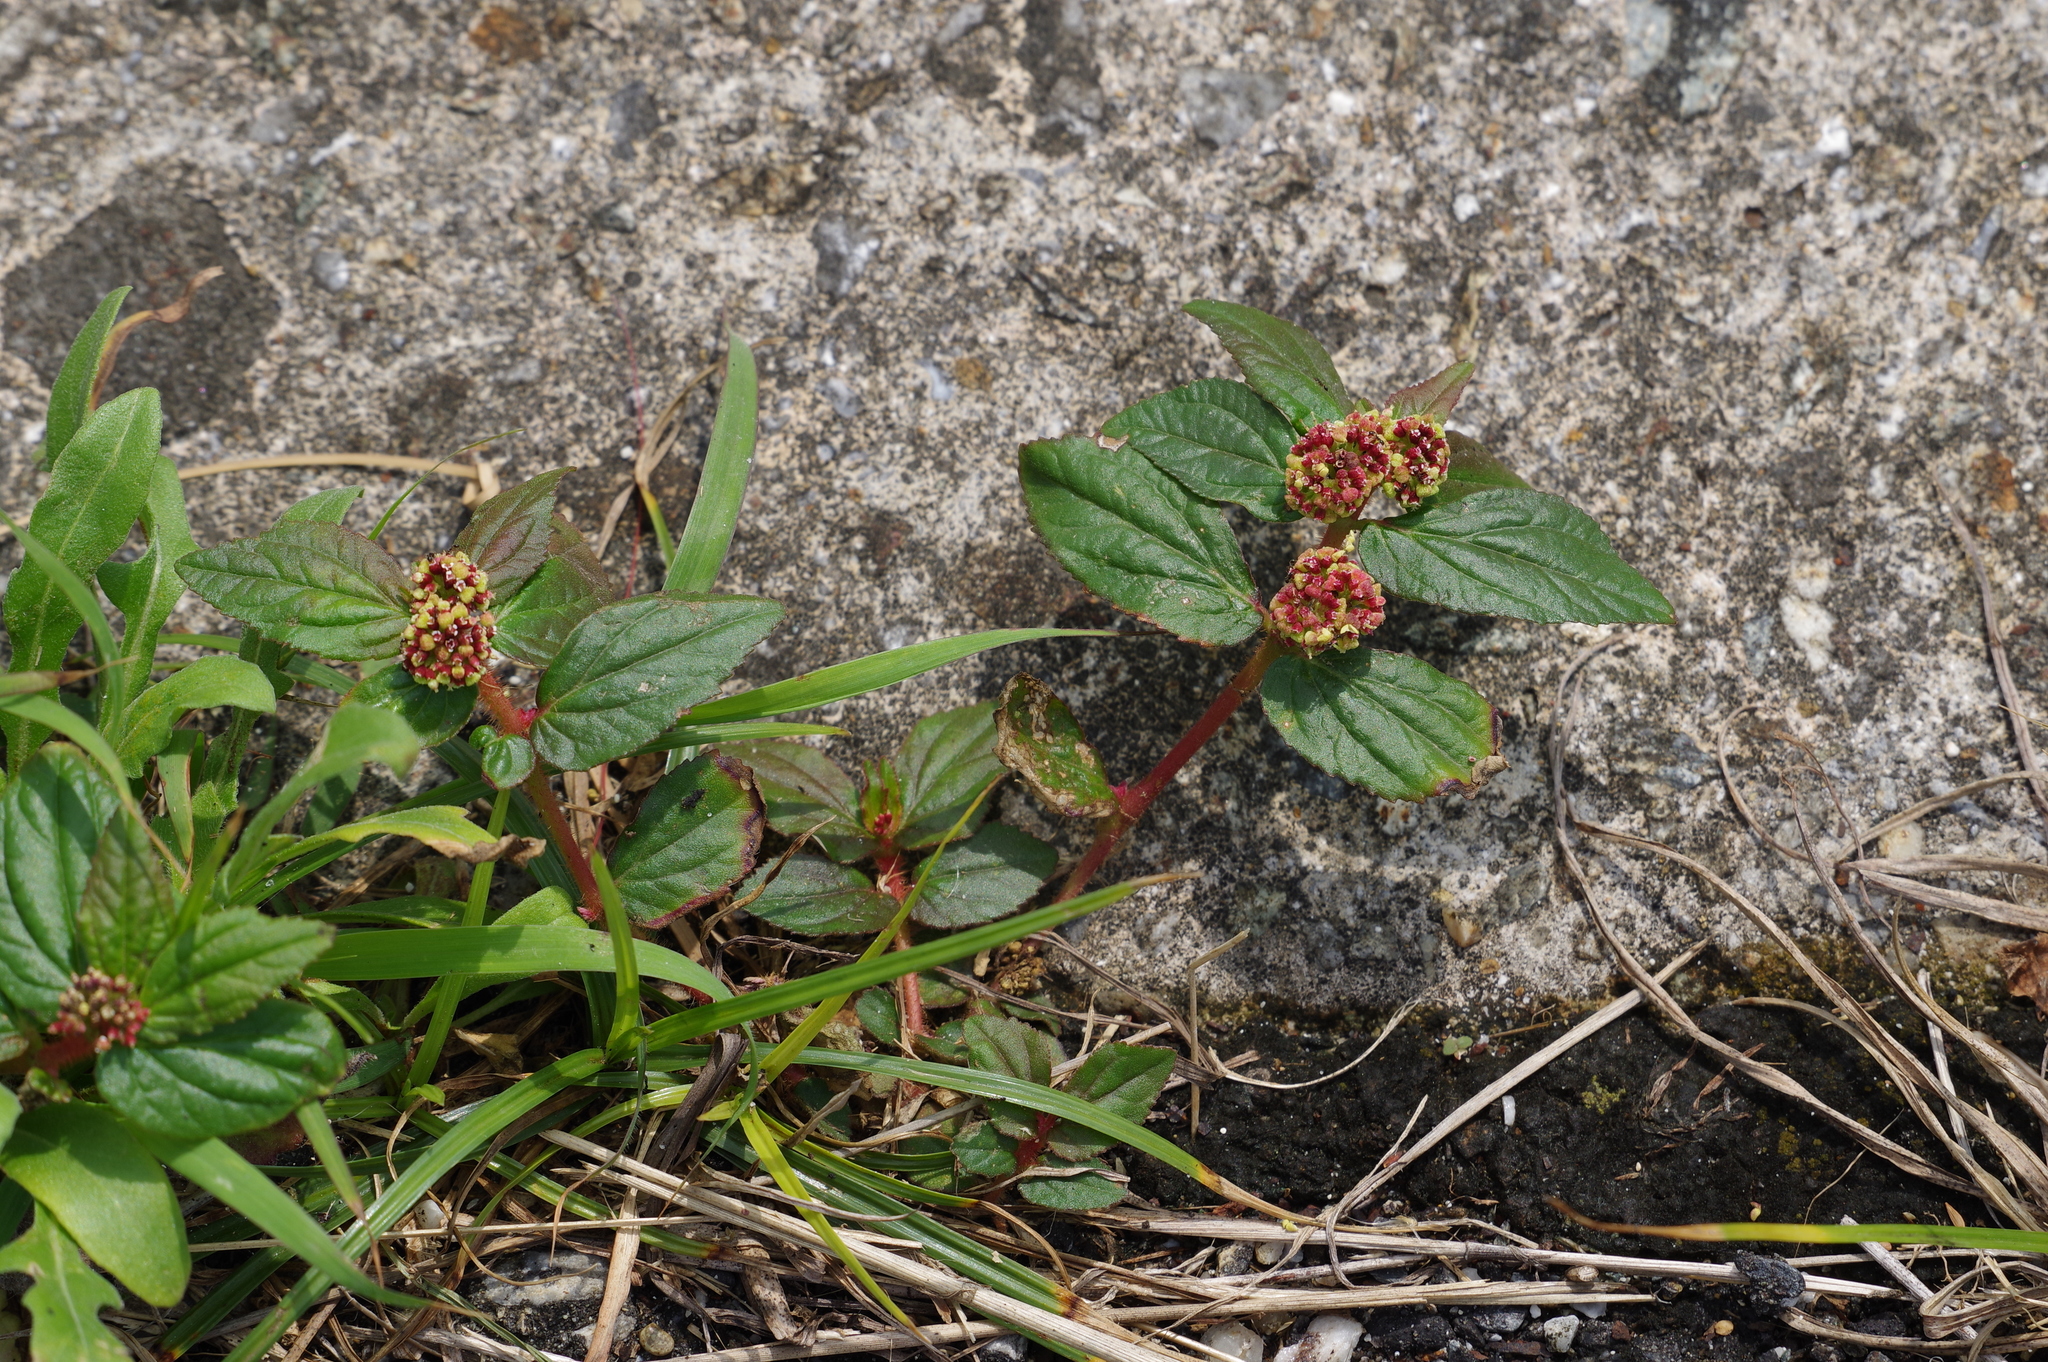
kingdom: Plantae
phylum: Tracheophyta
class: Magnoliopsida
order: Malpighiales
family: Euphorbiaceae
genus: Euphorbia
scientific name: Euphorbia hirta
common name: Pillpod sandmat
